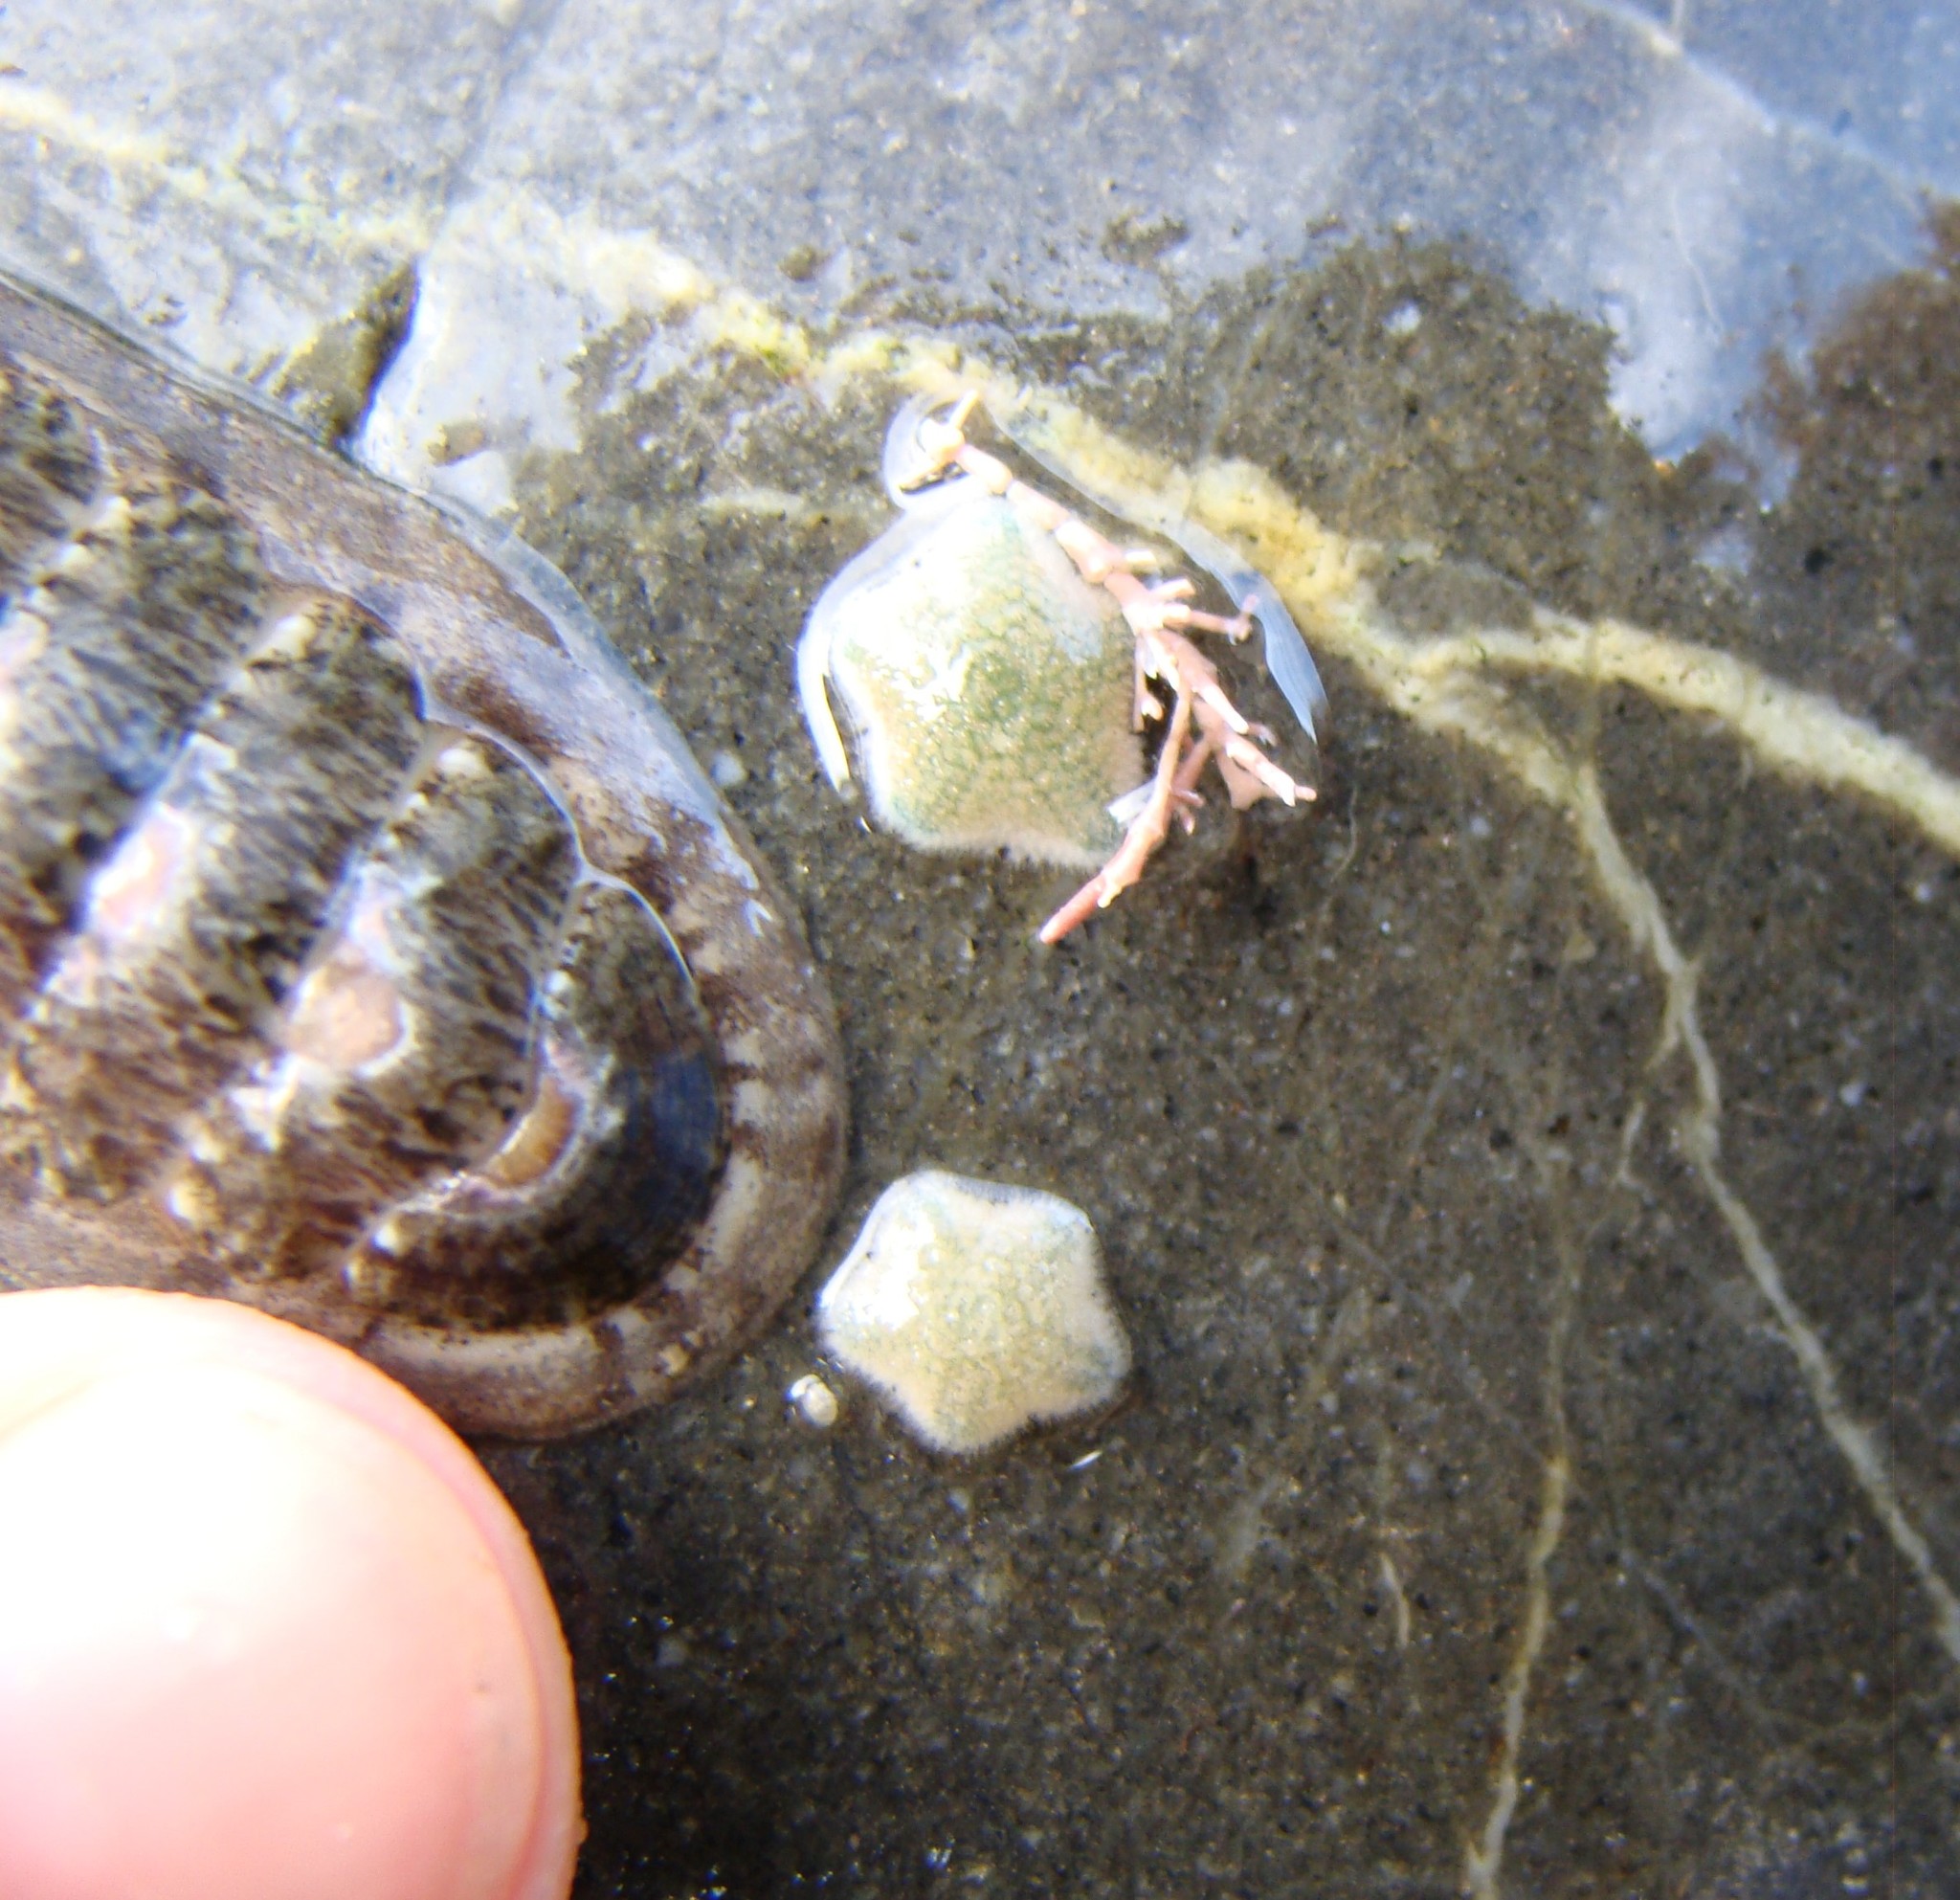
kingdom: Animalia
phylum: Echinodermata
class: Asteroidea
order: Valvatida
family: Asterinidae
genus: Patiriella
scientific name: Patiriella regularis
